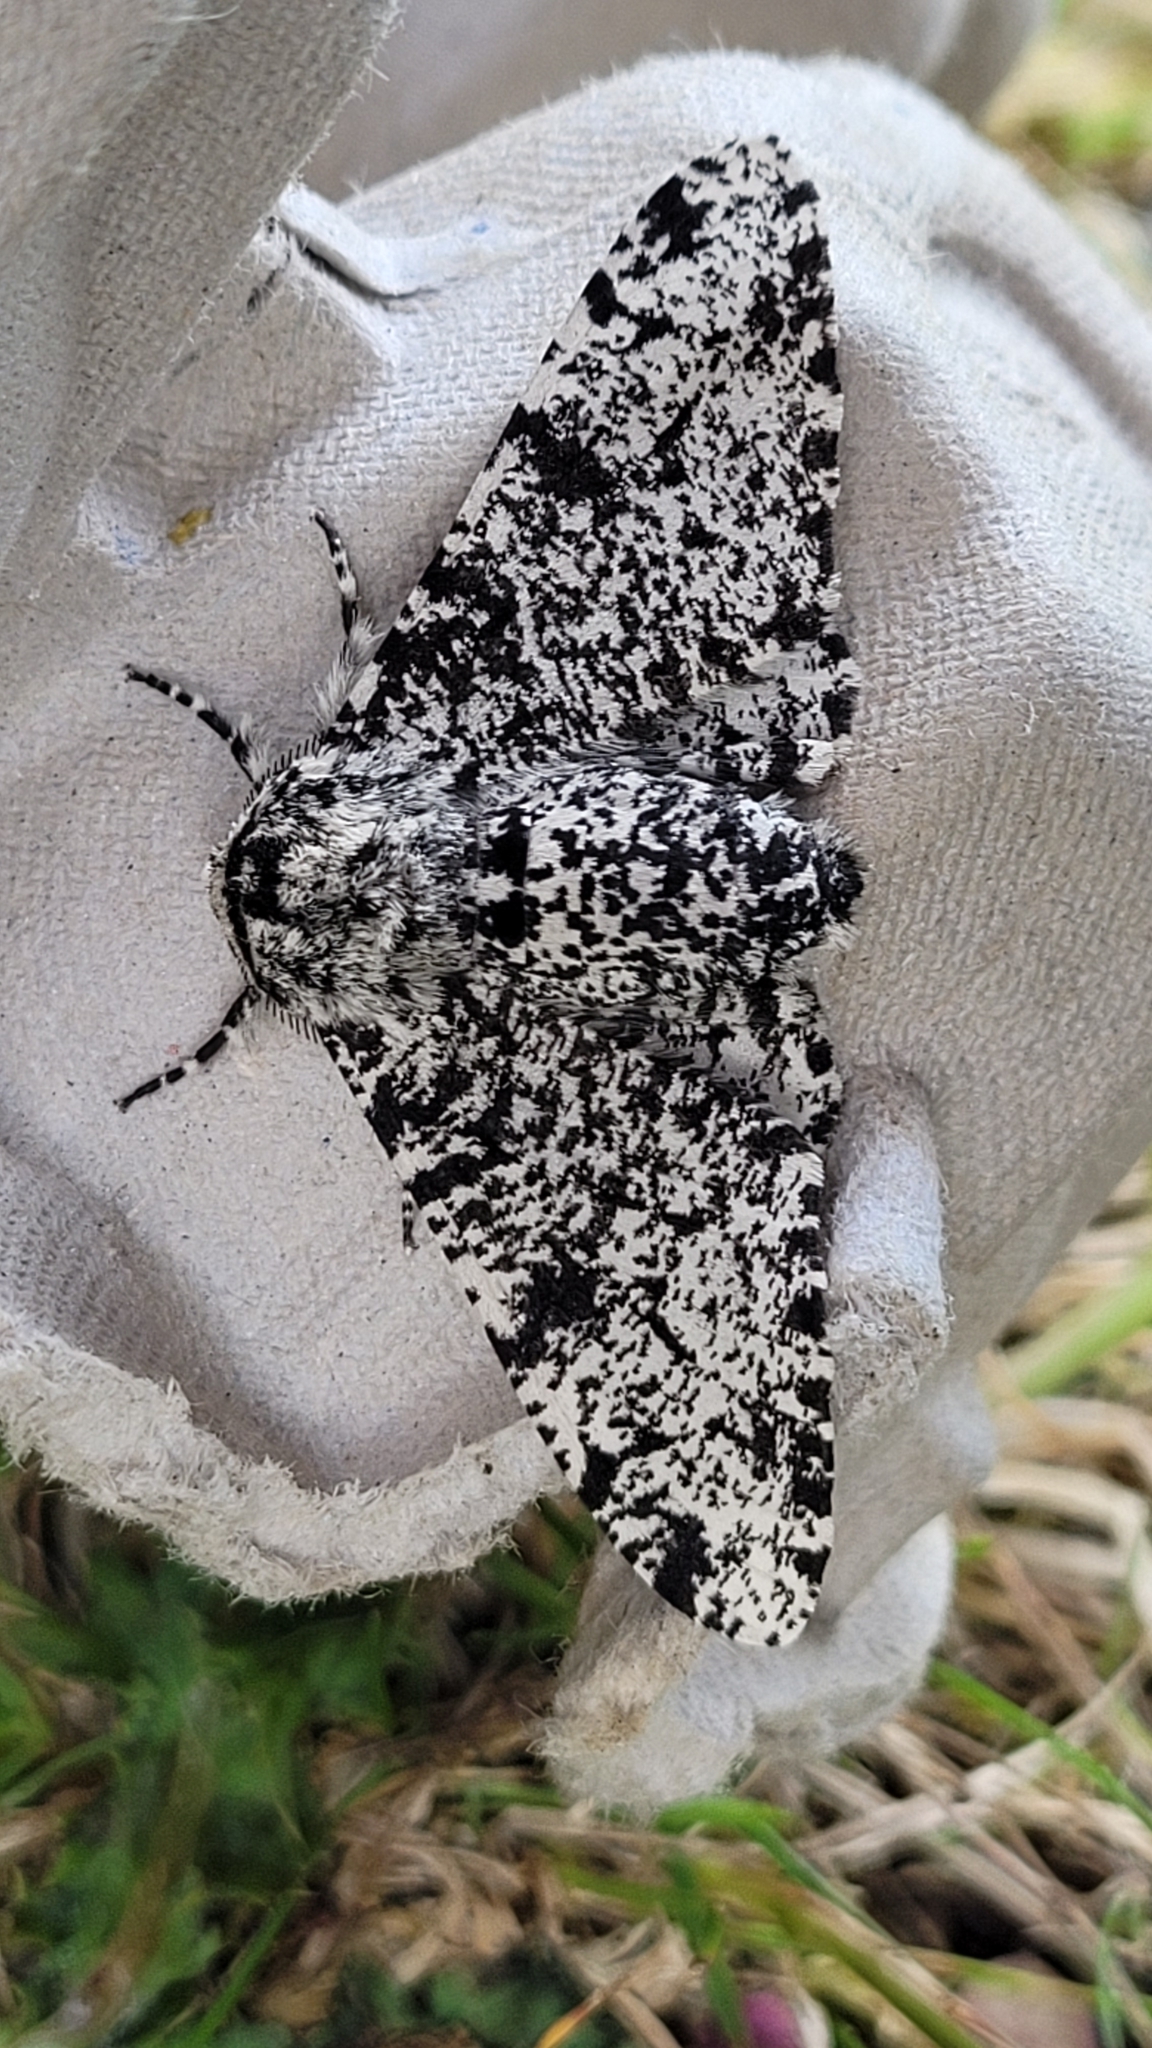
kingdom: Animalia
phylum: Arthropoda
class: Insecta
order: Lepidoptera
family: Geometridae
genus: Biston
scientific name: Biston betularia
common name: Peppered moth
